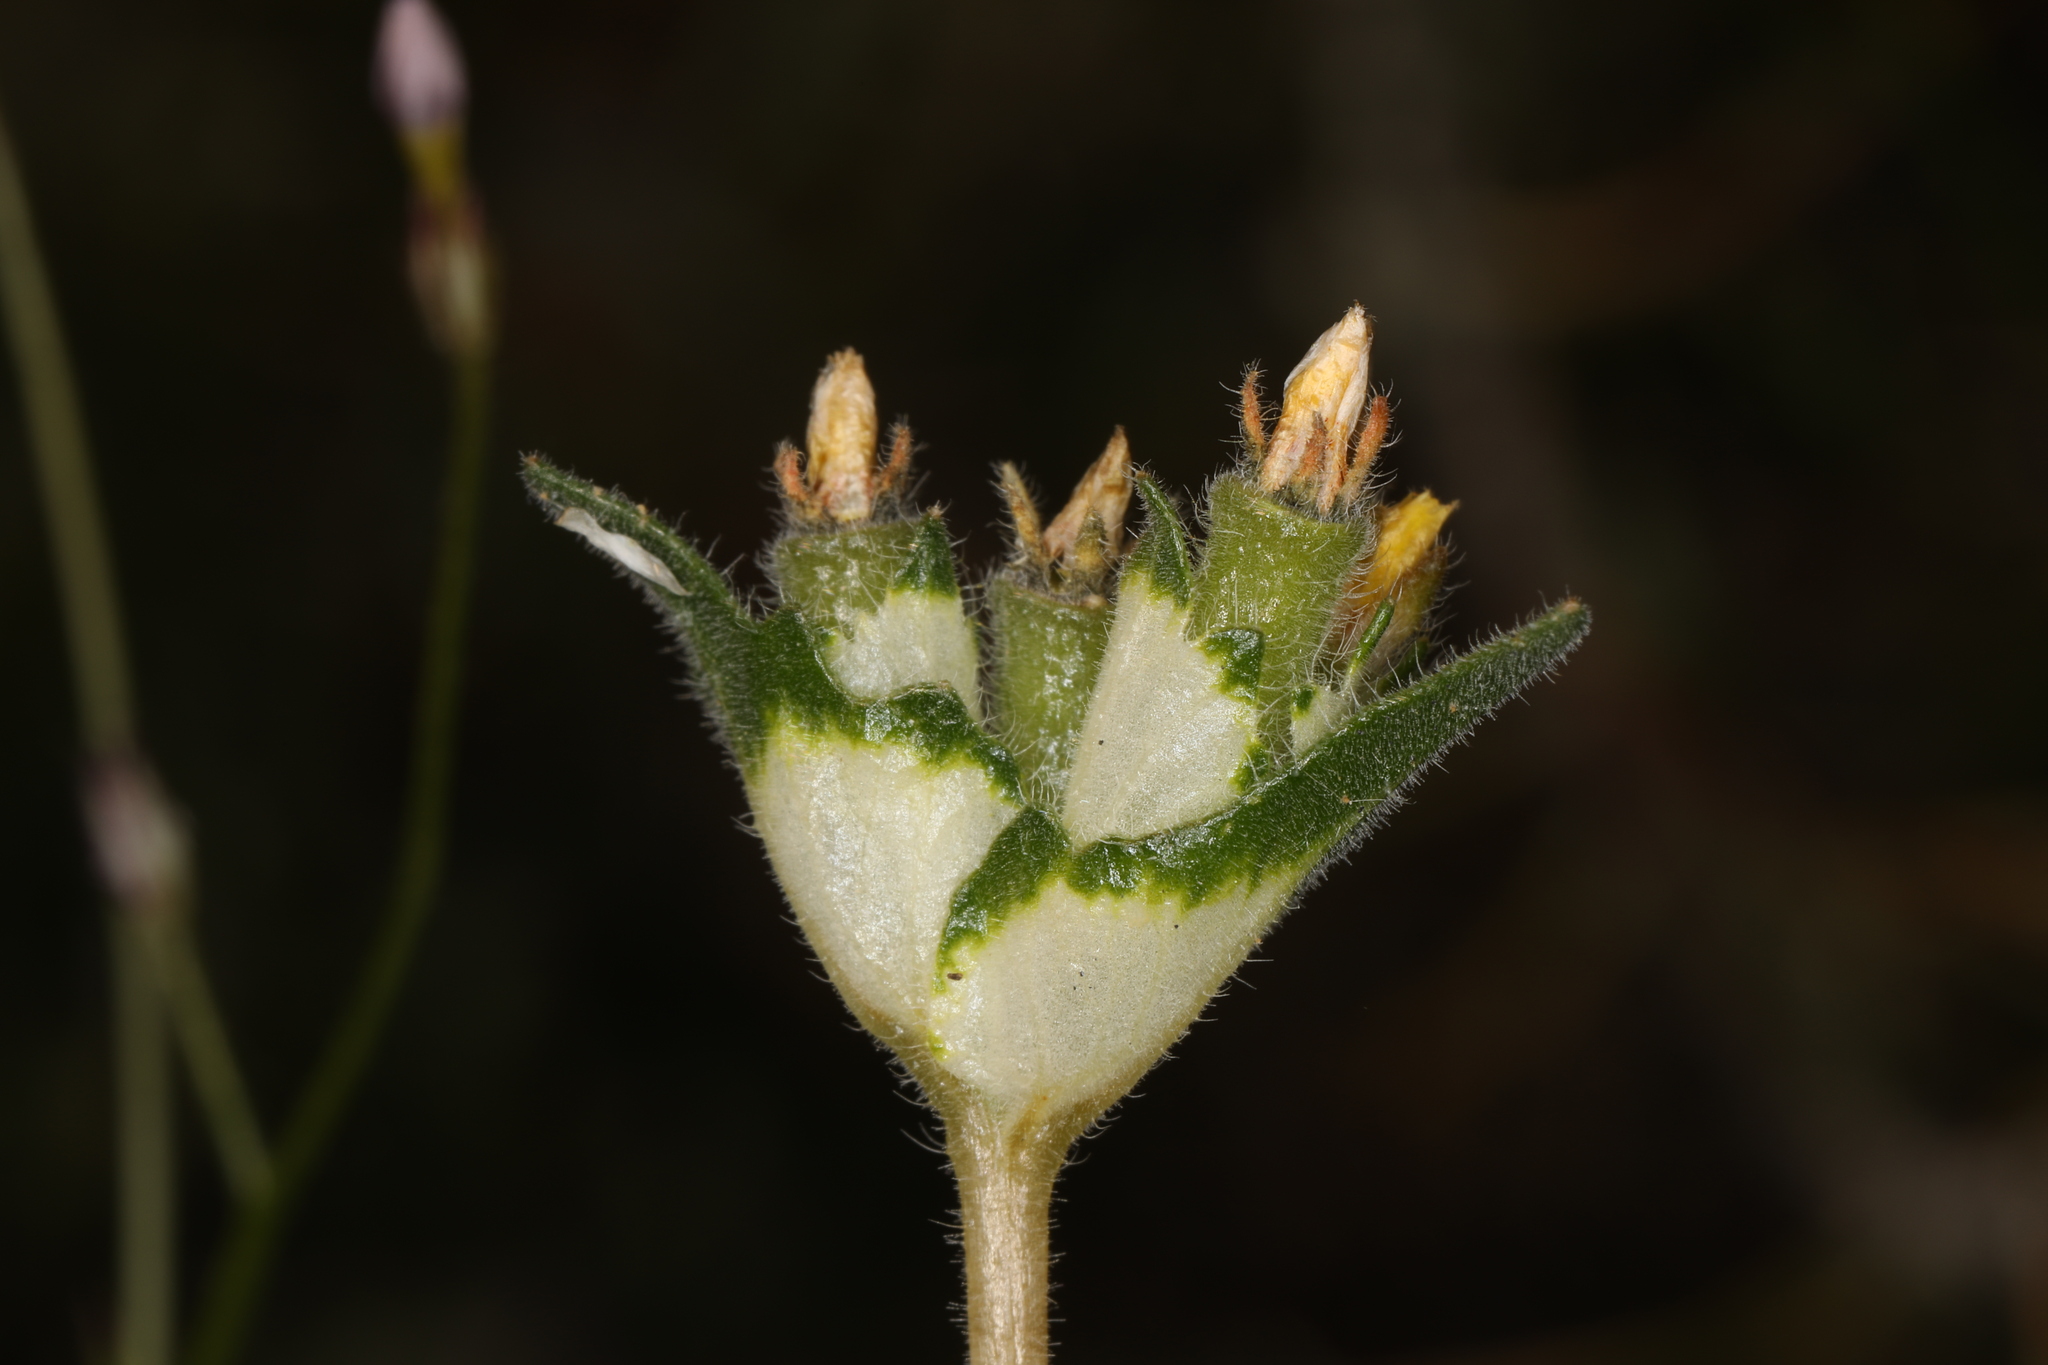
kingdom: Plantae
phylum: Tracheophyta
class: Magnoliopsida
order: Cornales
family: Loasaceae
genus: Mentzelia
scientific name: Mentzelia congesta
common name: Ventana blazingstar
